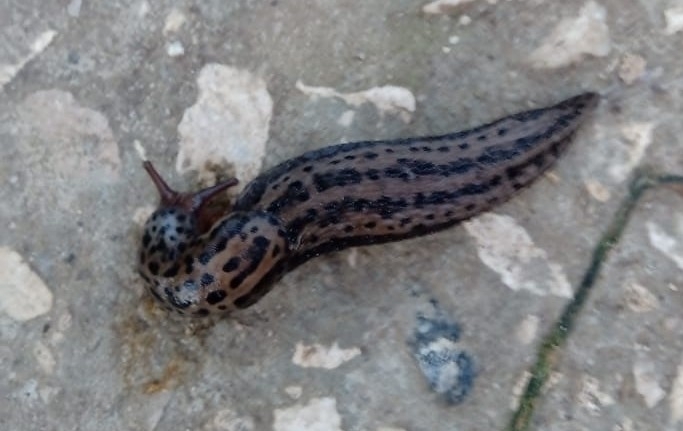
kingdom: Animalia
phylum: Mollusca
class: Gastropoda
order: Stylommatophora
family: Limacidae
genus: Limax
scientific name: Limax maximus
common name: Great grey slug
